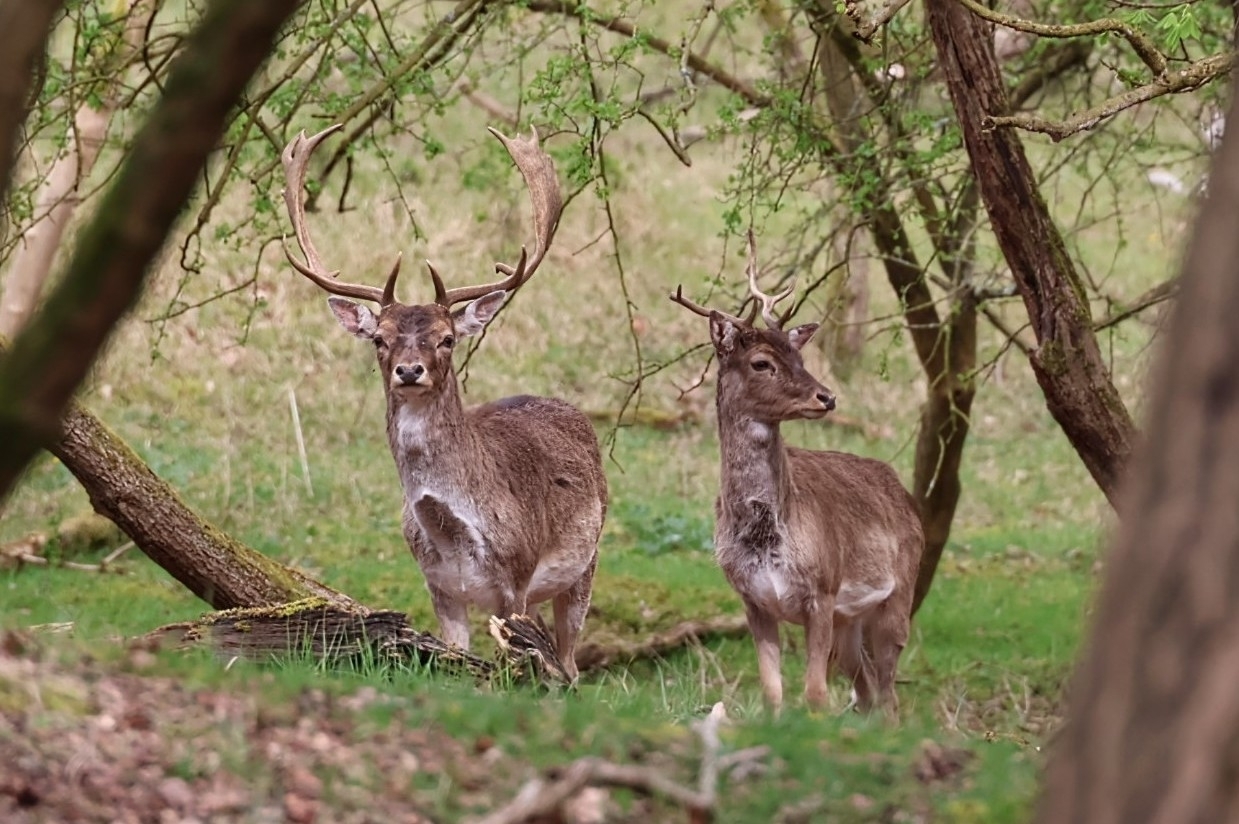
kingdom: Animalia
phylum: Chordata
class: Mammalia
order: Artiodactyla
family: Cervidae
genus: Dama
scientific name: Dama dama
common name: Fallow deer
